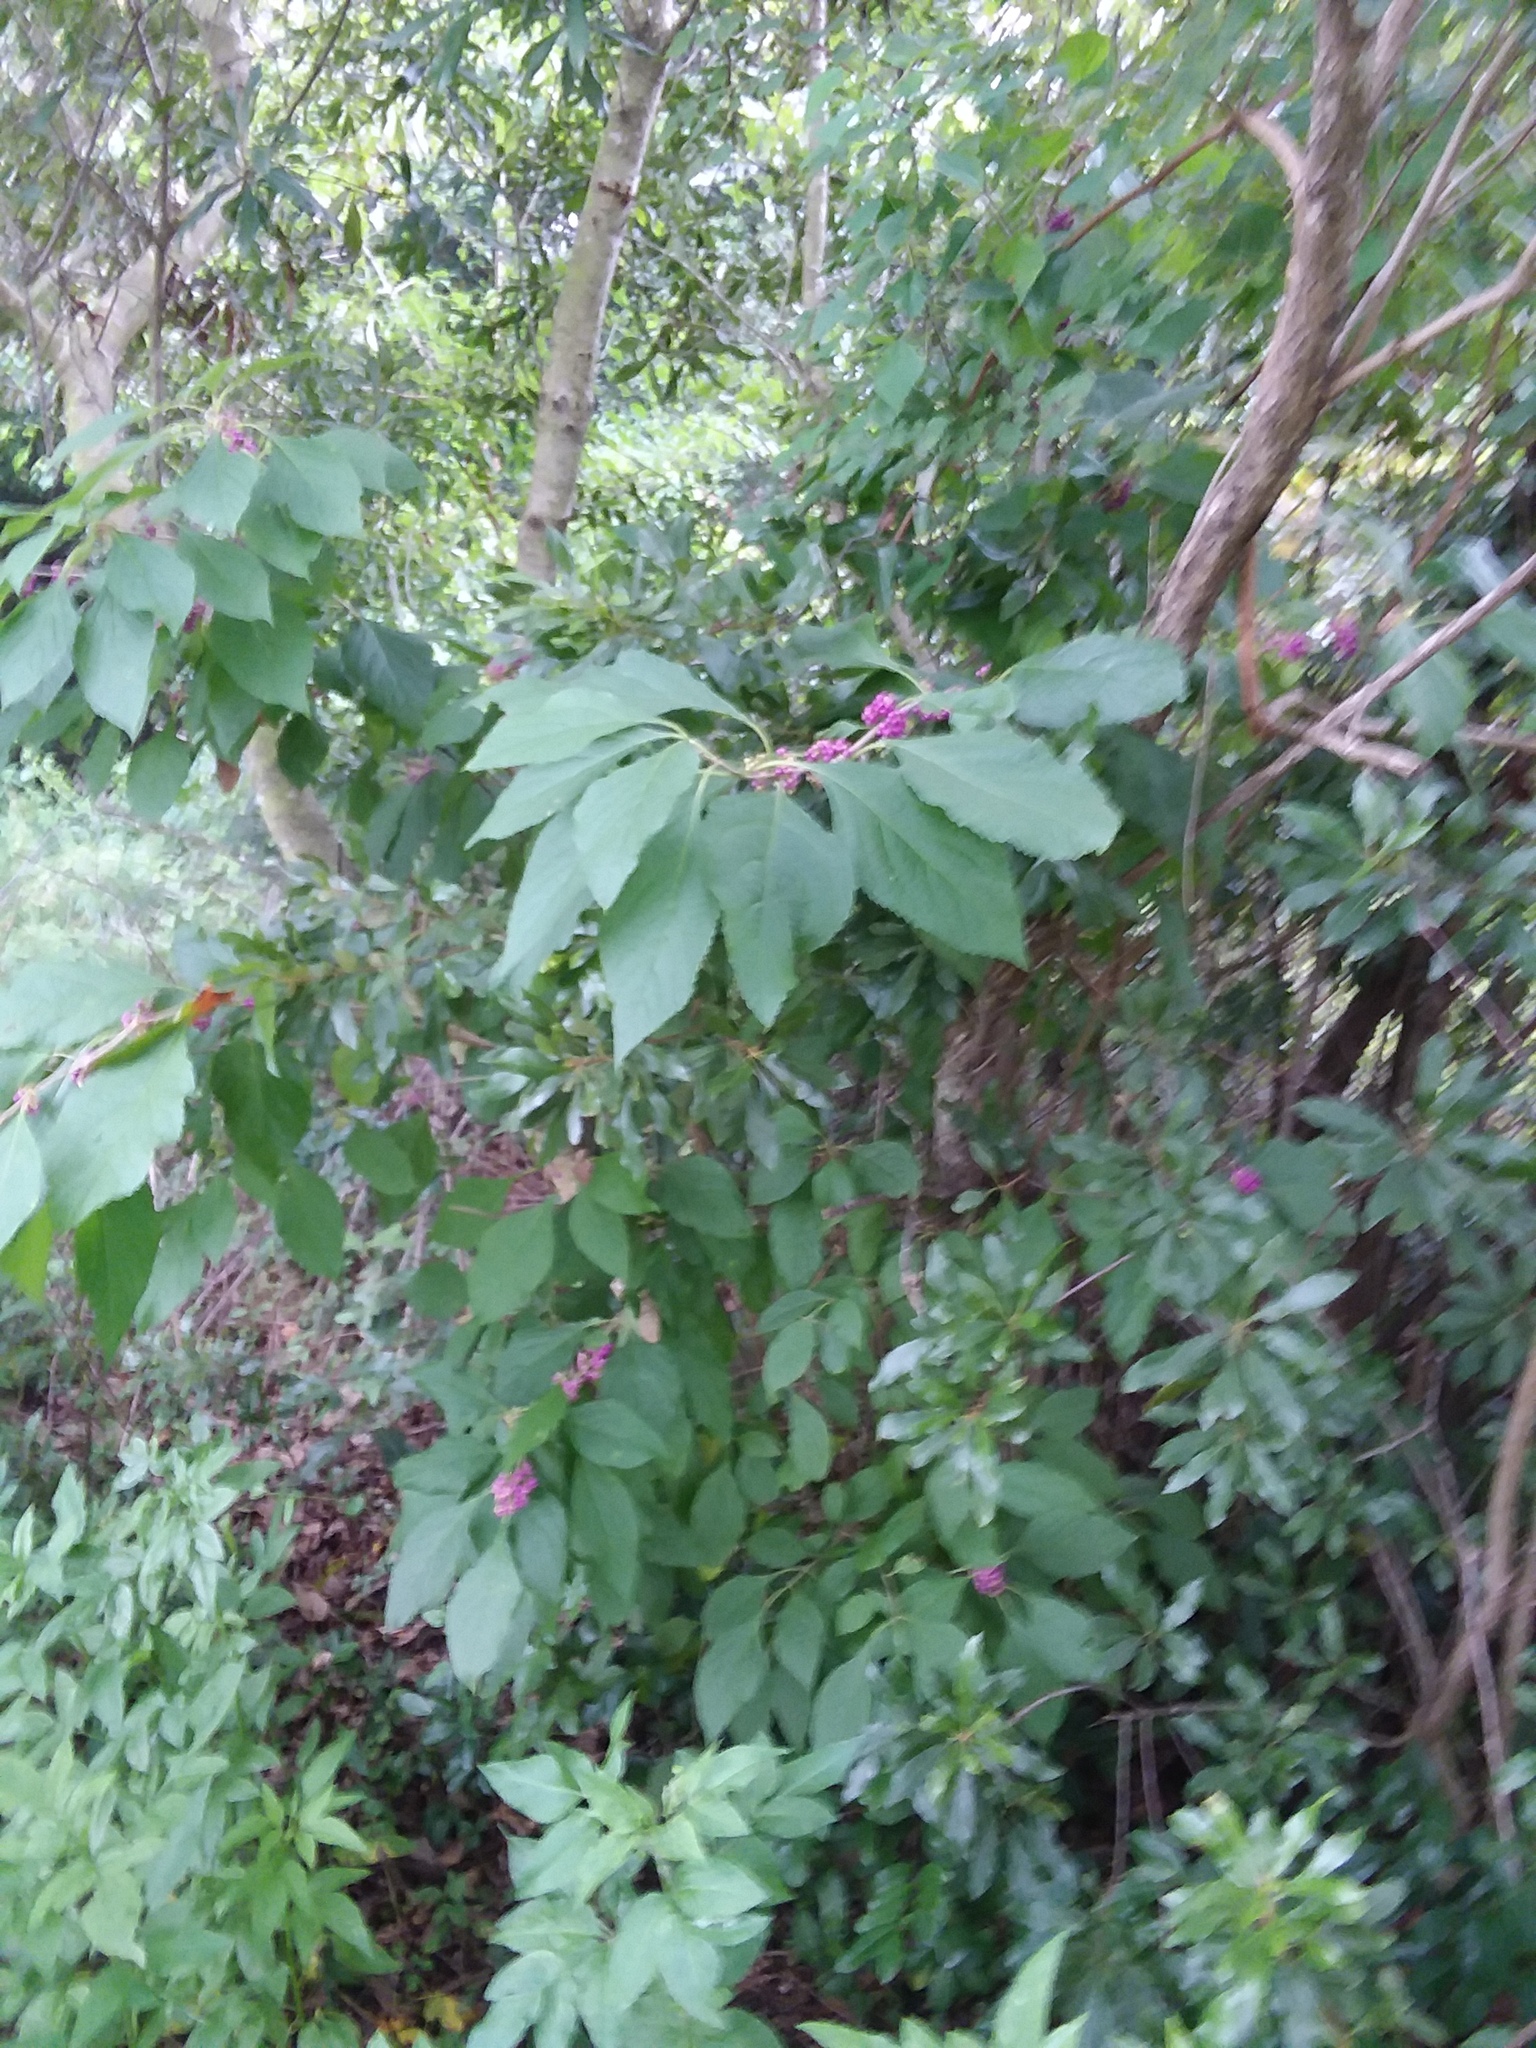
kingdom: Plantae
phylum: Tracheophyta
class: Magnoliopsida
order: Lamiales
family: Lamiaceae
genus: Callicarpa
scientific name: Callicarpa americana
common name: American beautyberry
